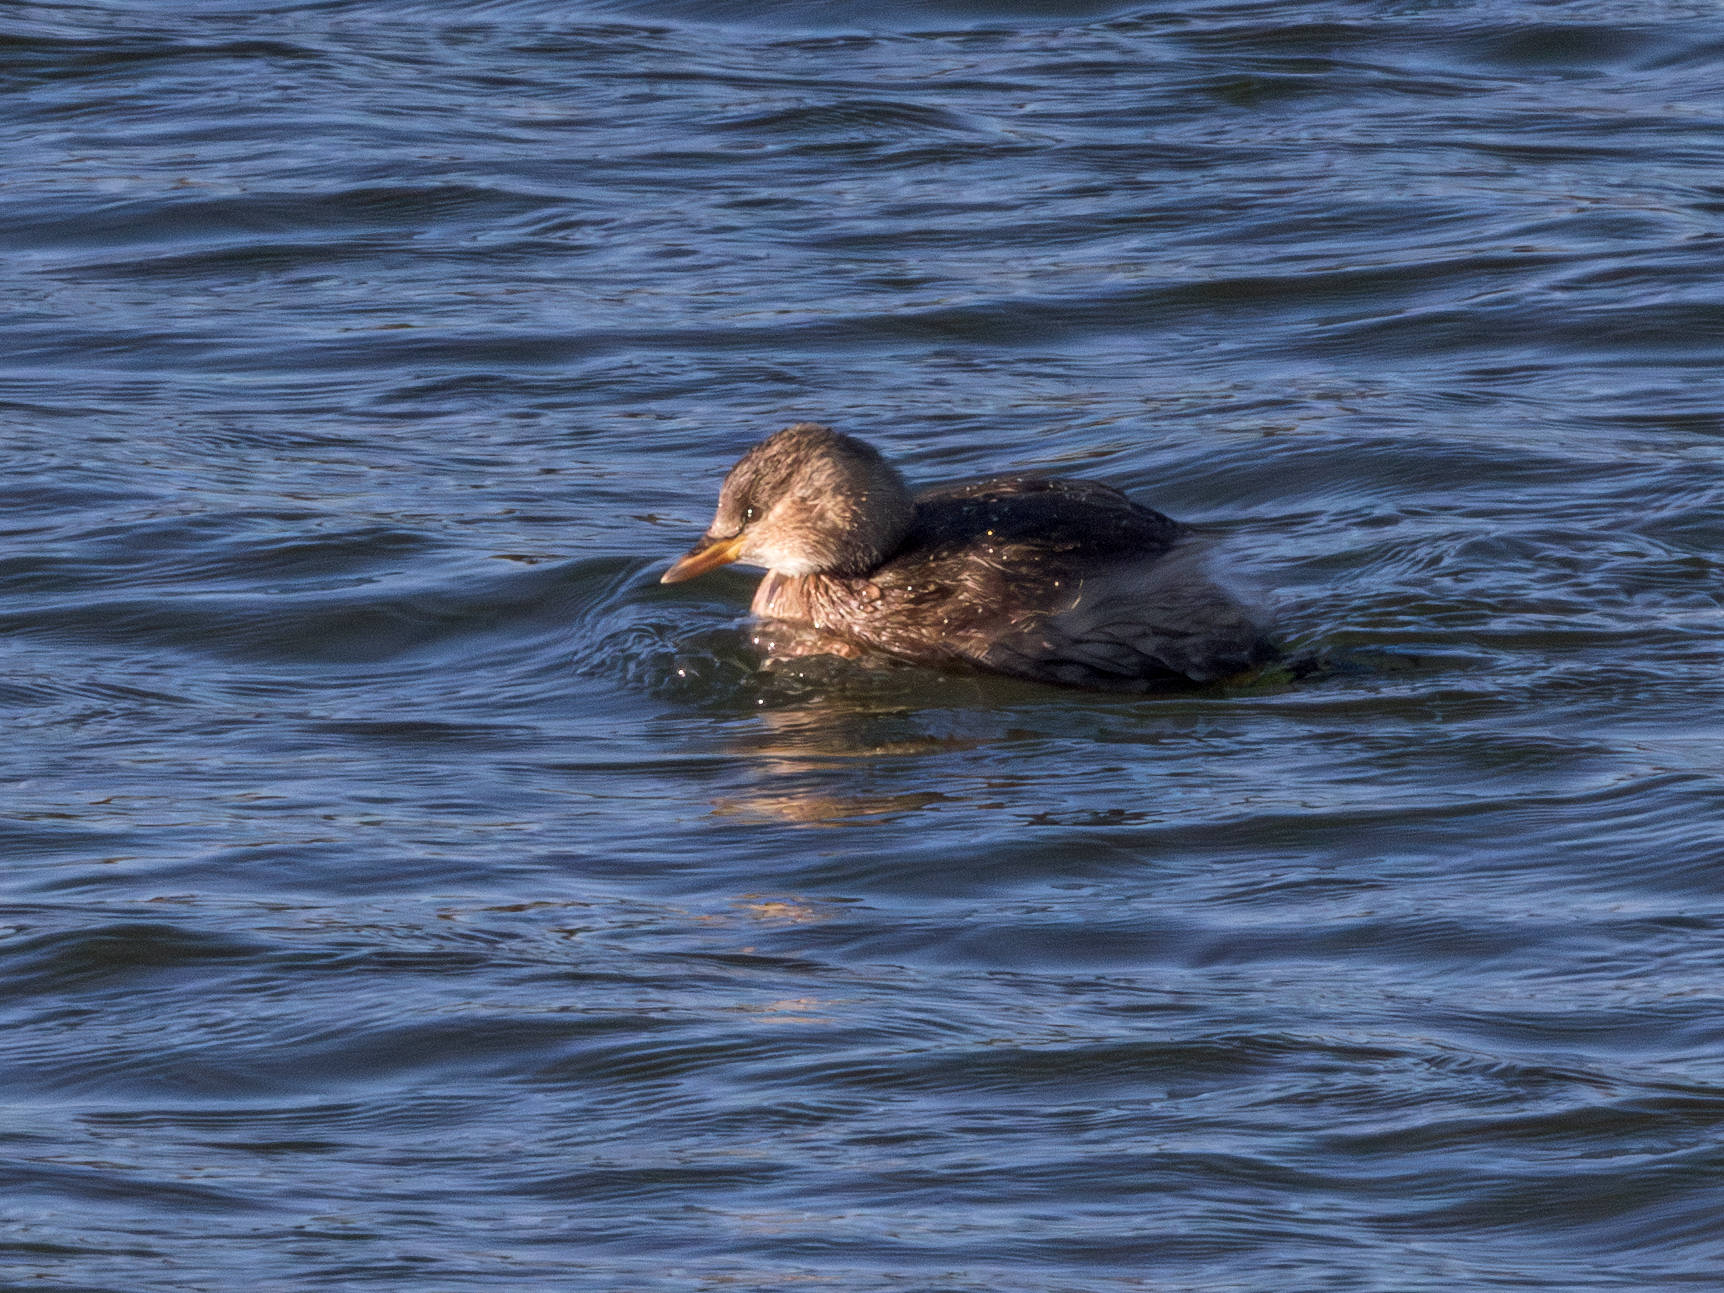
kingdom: Animalia
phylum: Chordata
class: Aves
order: Podicipediformes
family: Podicipedidae
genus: Tachybaptus
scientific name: Tachybaptus ruficollis
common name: Little grebe
